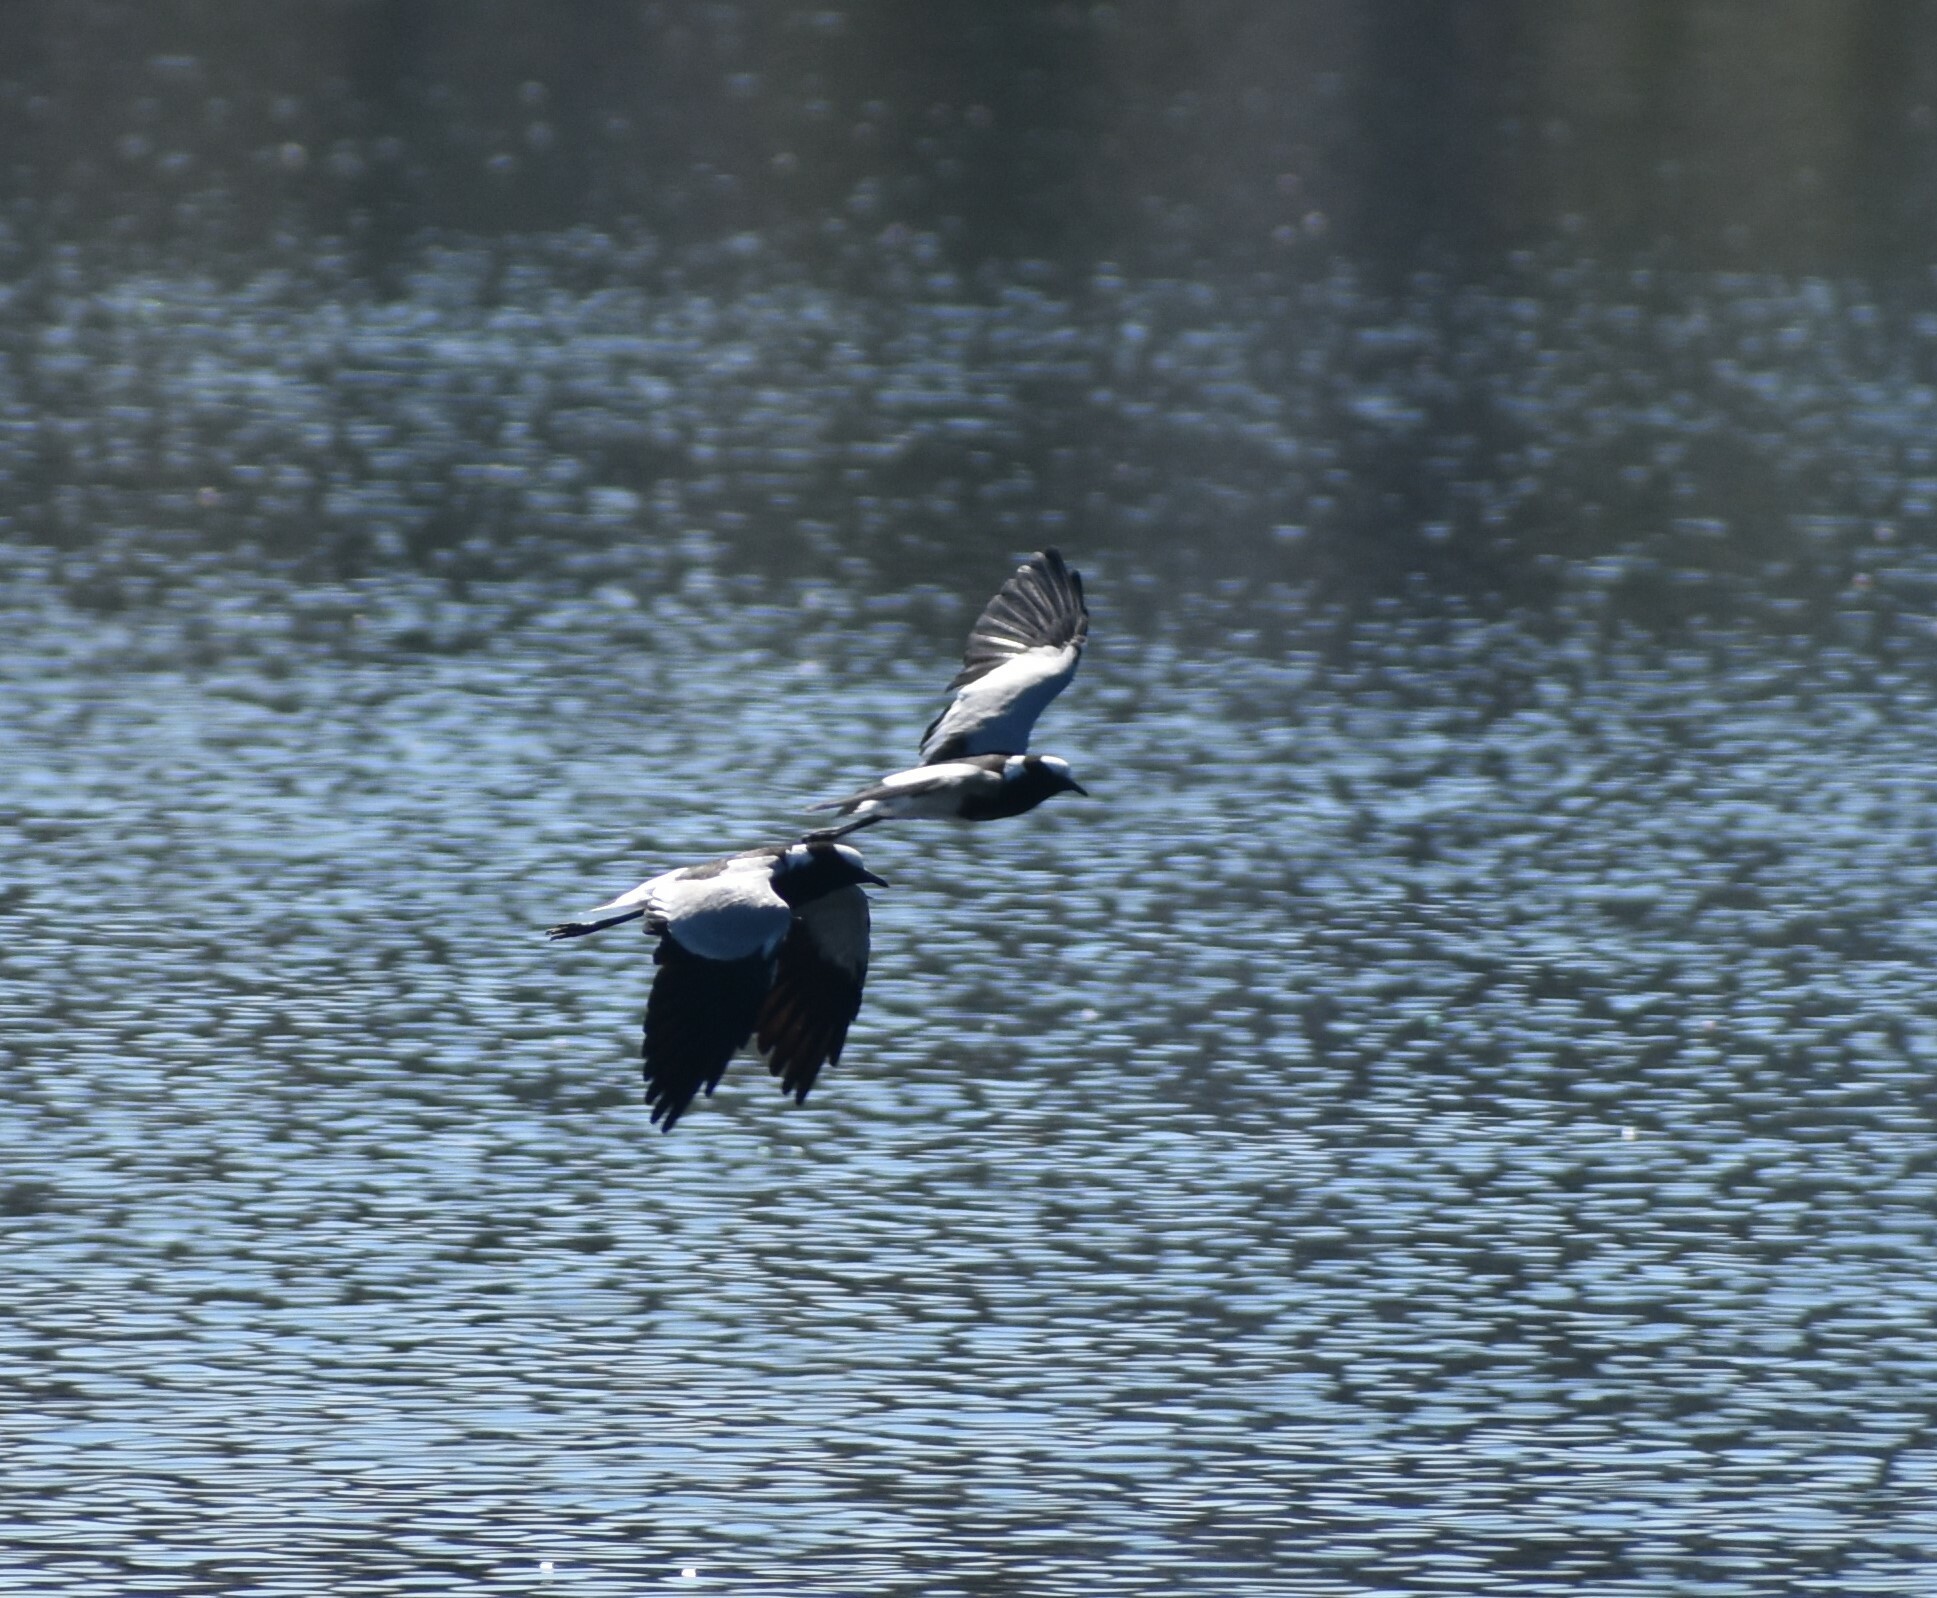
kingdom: Animalia
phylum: Chordata
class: Aves
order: Charadriiformes
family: Charadriidae
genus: Vanellus
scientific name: Vanellus armatus
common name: Blacksmith lapwing
